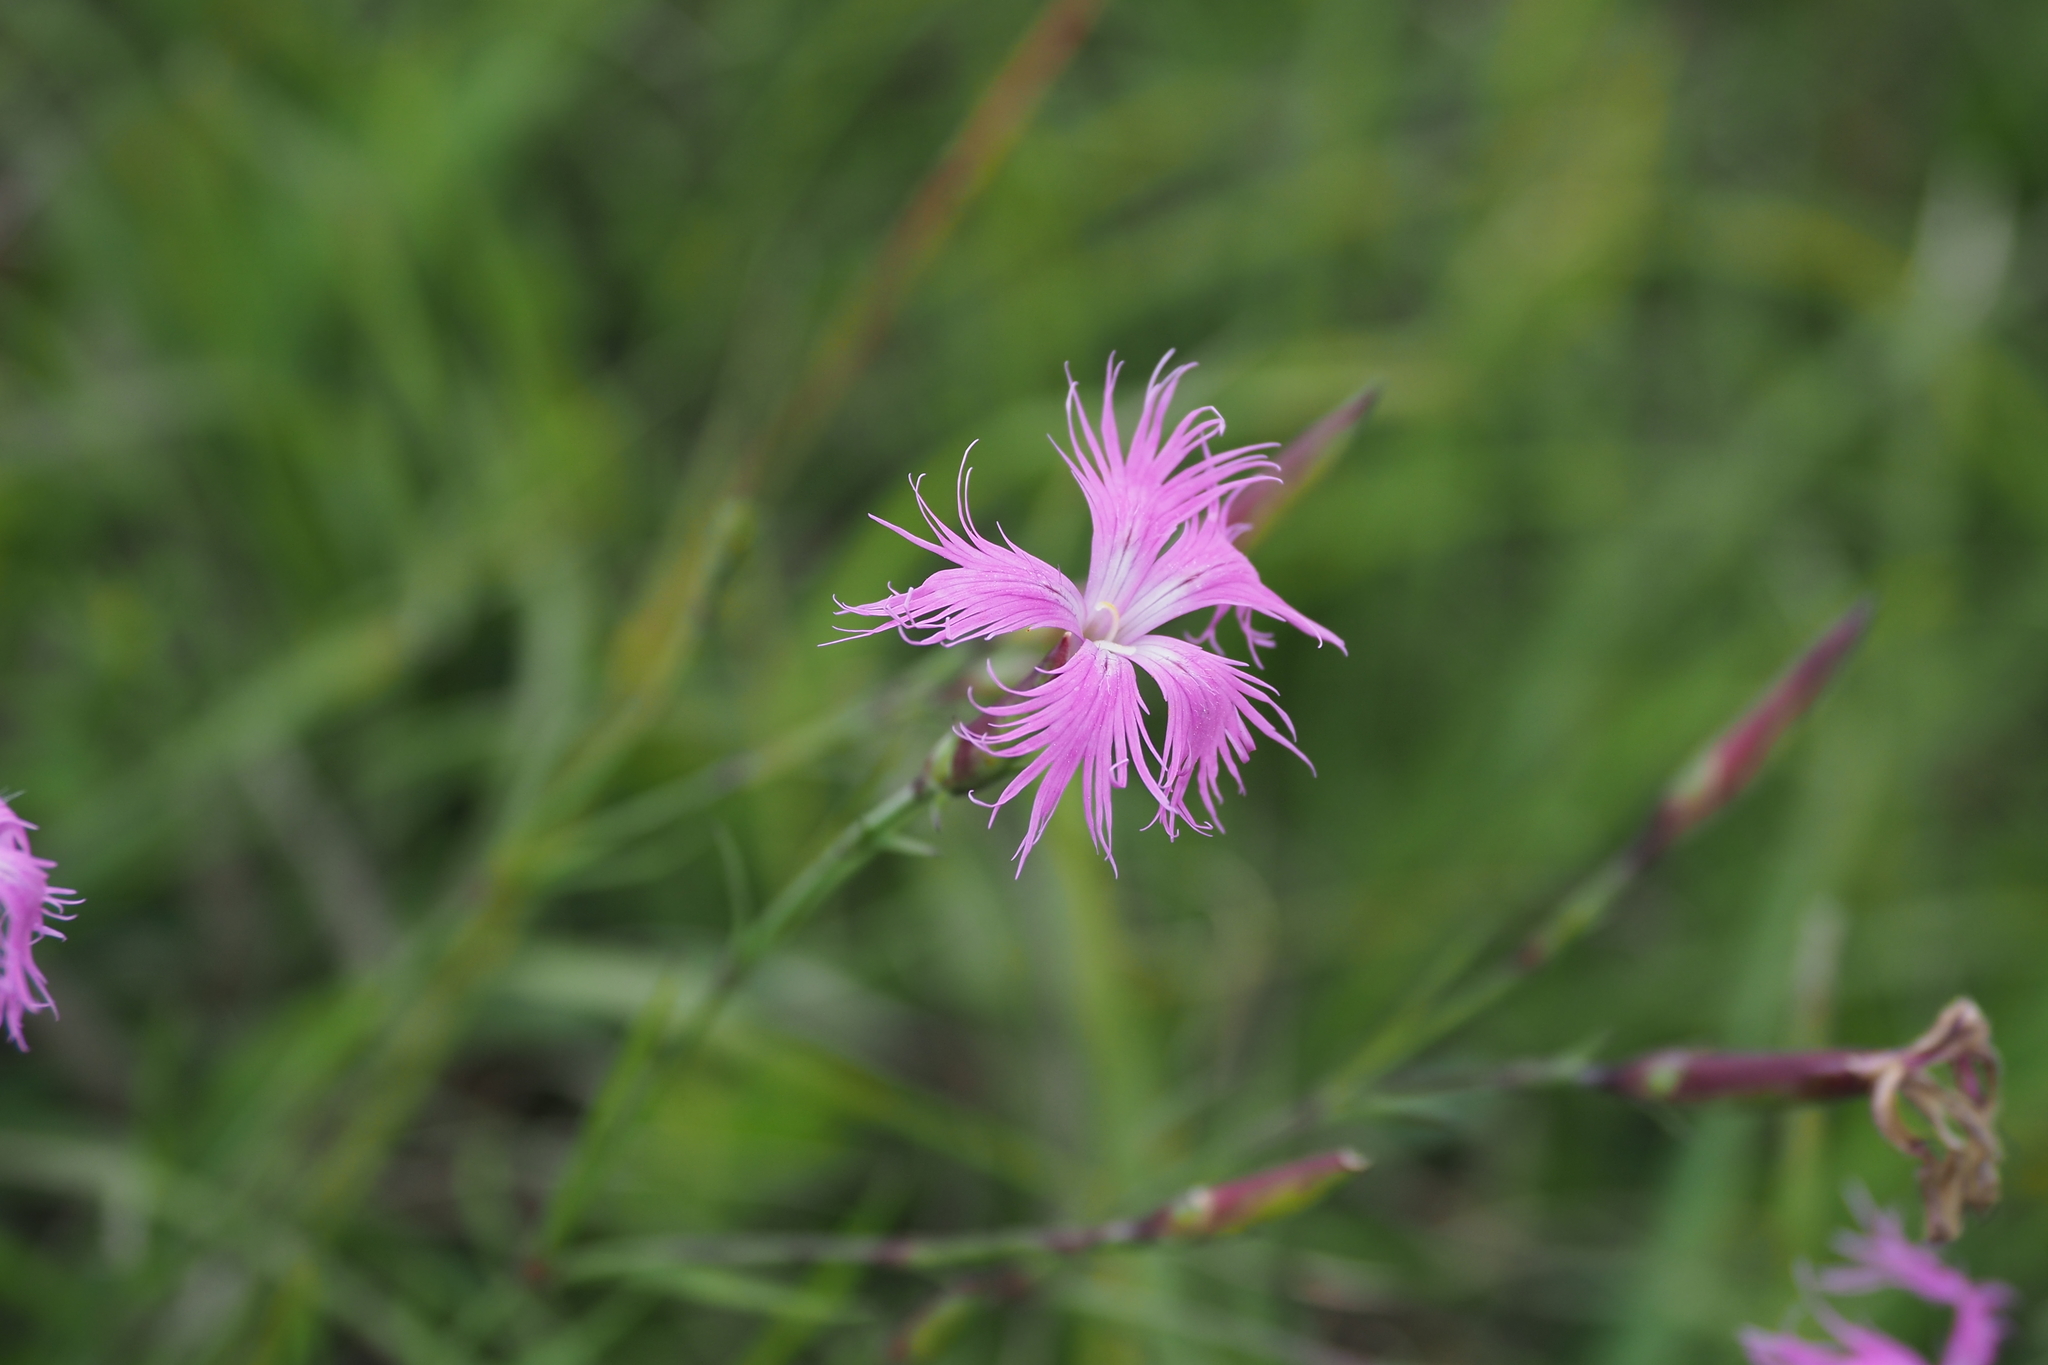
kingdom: Plantae
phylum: Tracheophyta
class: Magnoliopsida
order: Caryophyllales
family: Caryophyllaceae
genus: Dianthus
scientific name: Dianthus pygmaeus
